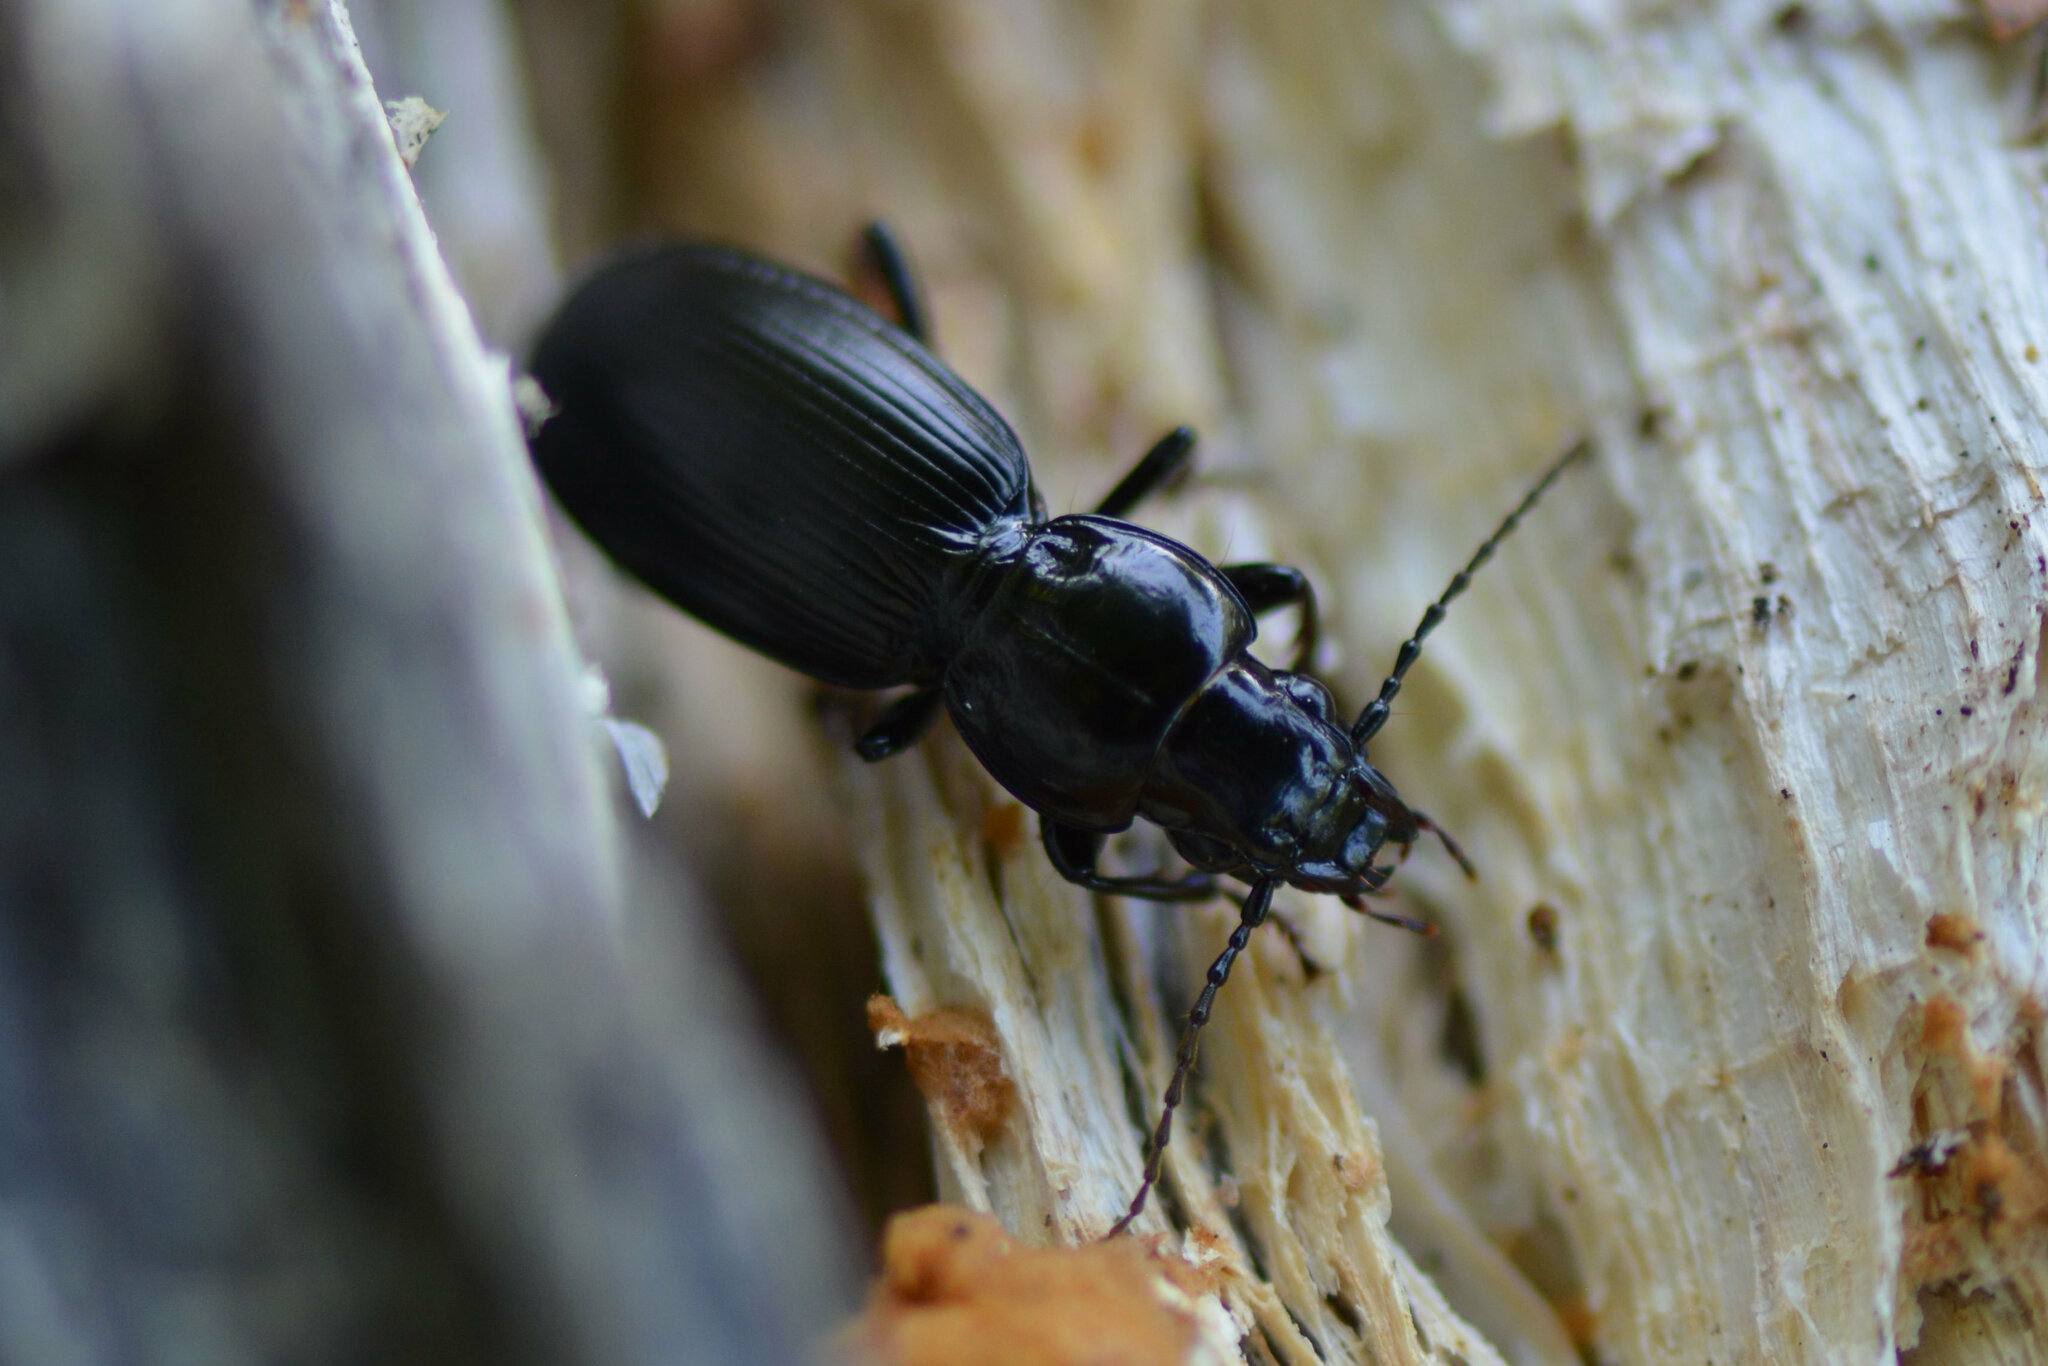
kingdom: Animalia
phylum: Arthropoda
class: Insecta
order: Coleoptera
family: Carabidae
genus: Pterostichus
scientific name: Pterostichus madidus
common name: Black clock
